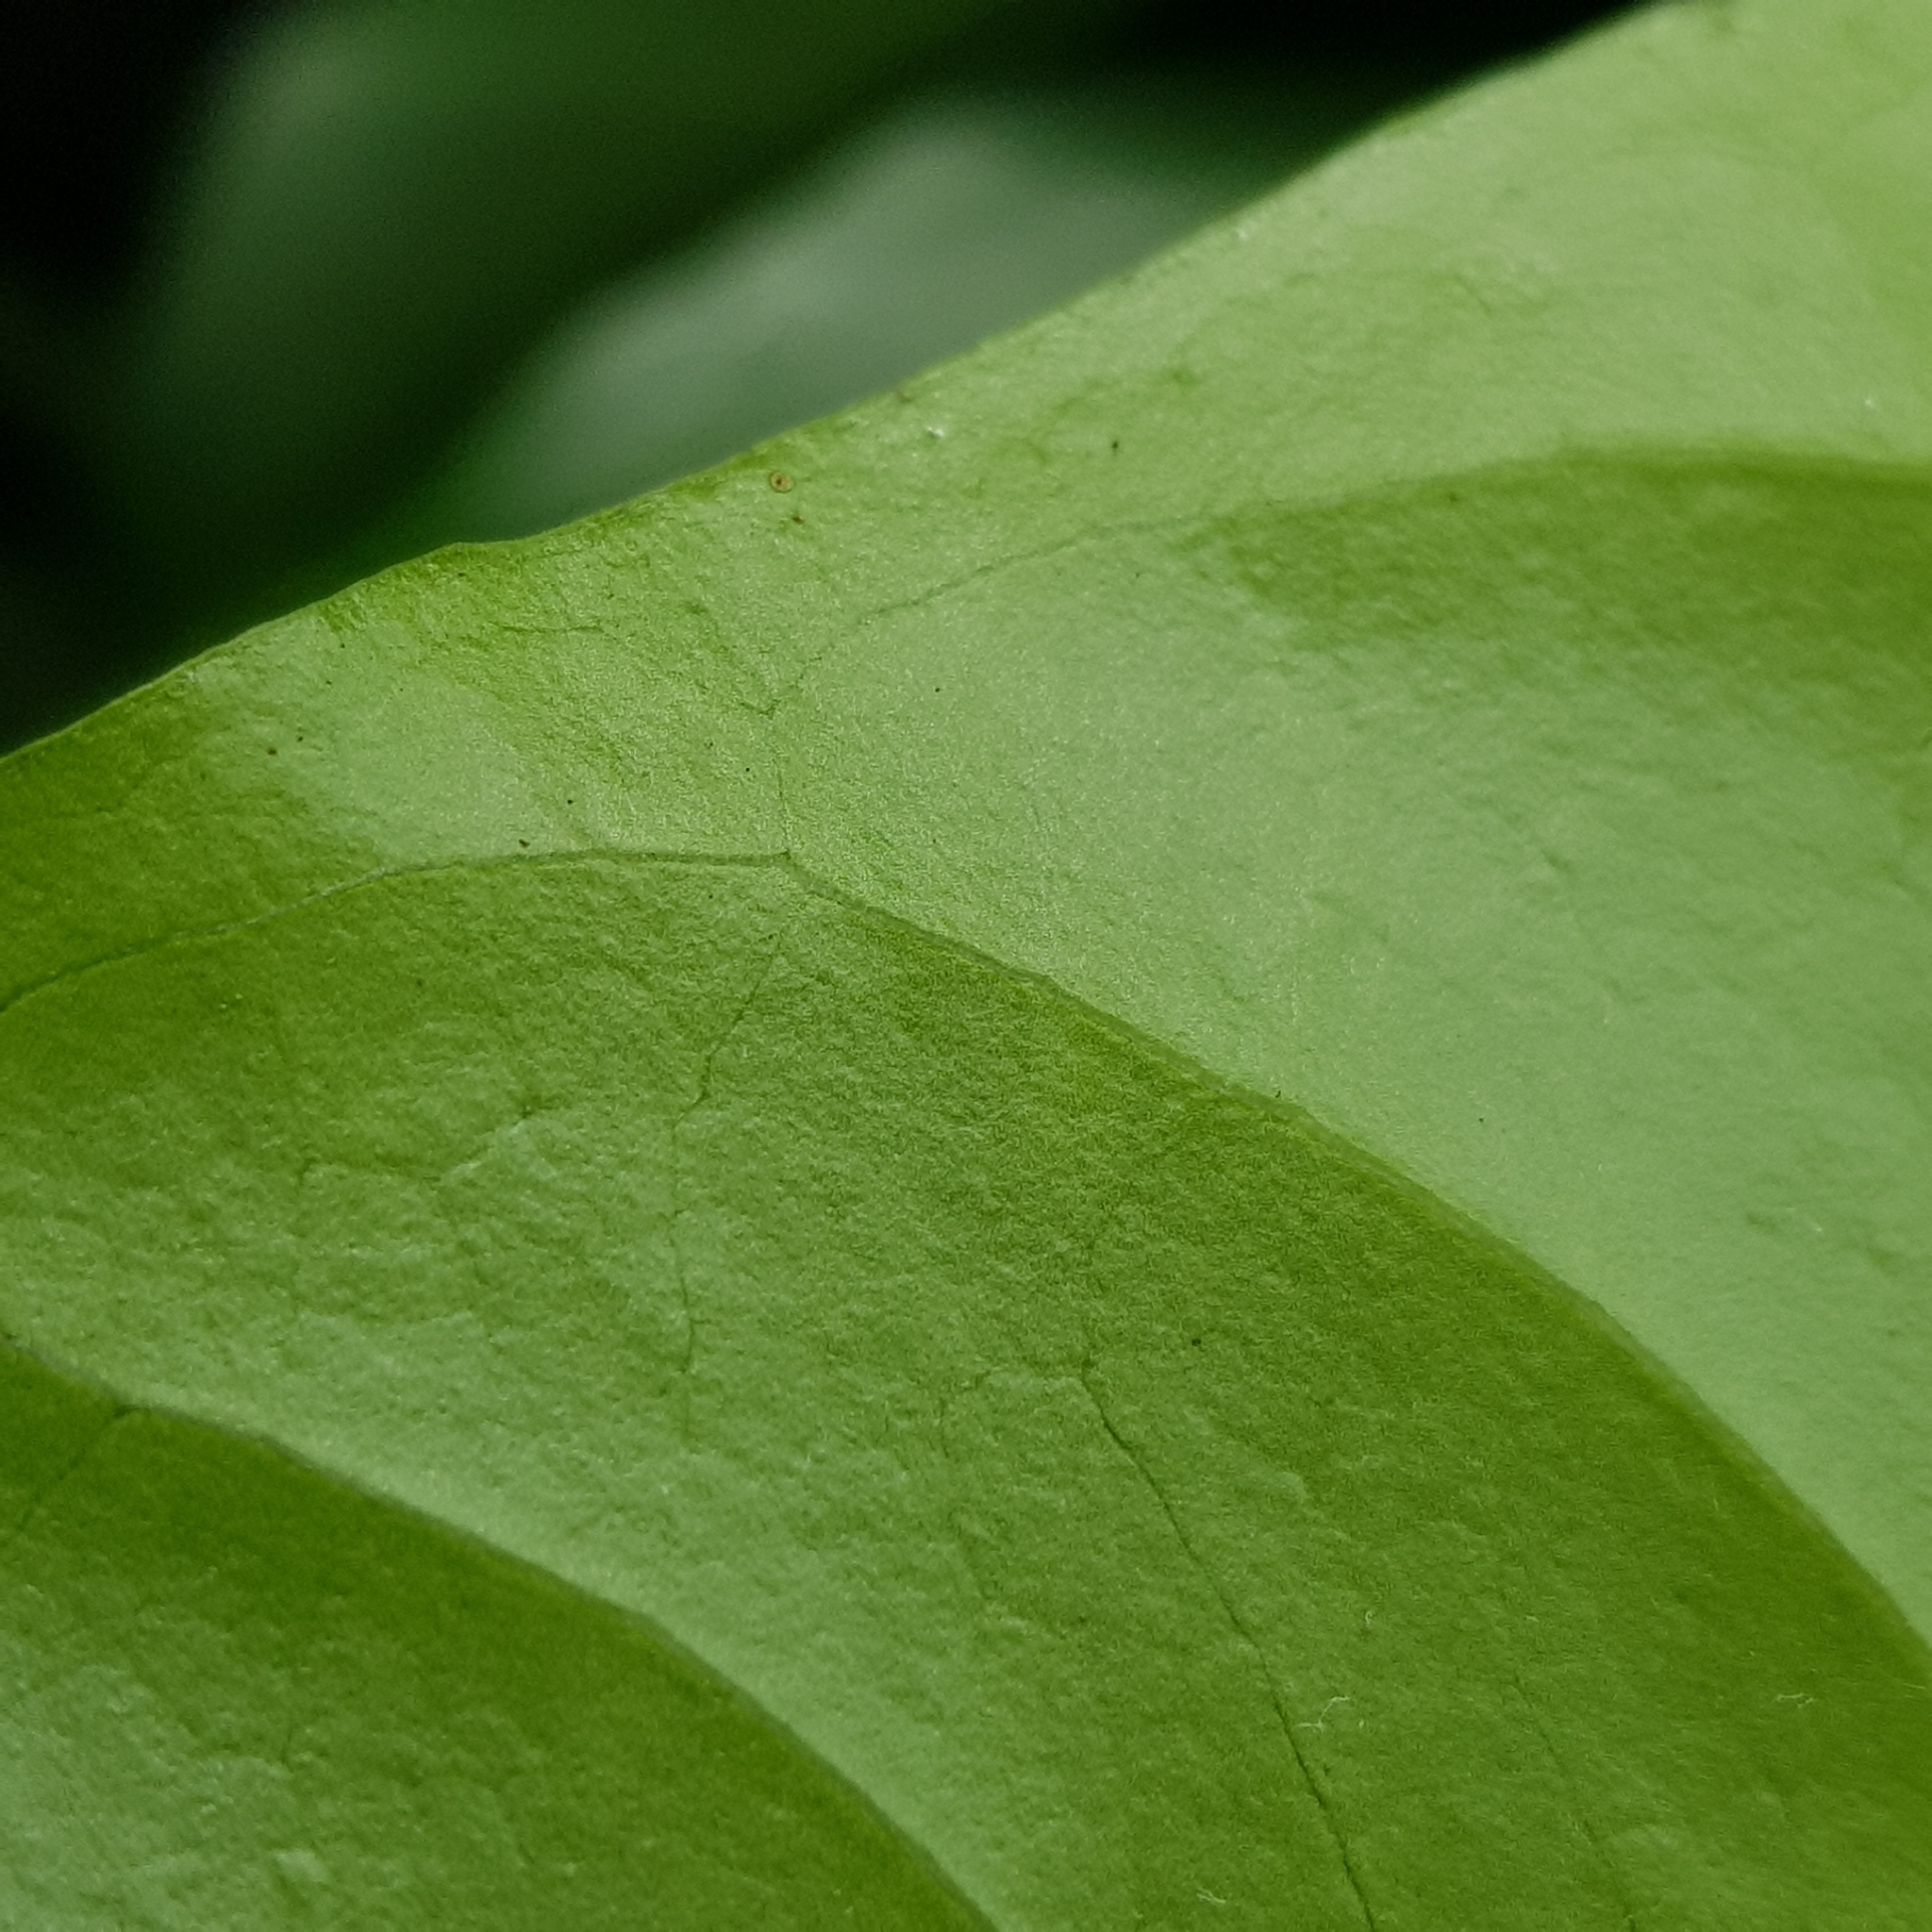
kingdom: Plantae
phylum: Tracheophyta
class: Magnoliopsida
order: Gentianales
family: Rubiaceae
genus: Canthiumera
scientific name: Canthiumera robusta
